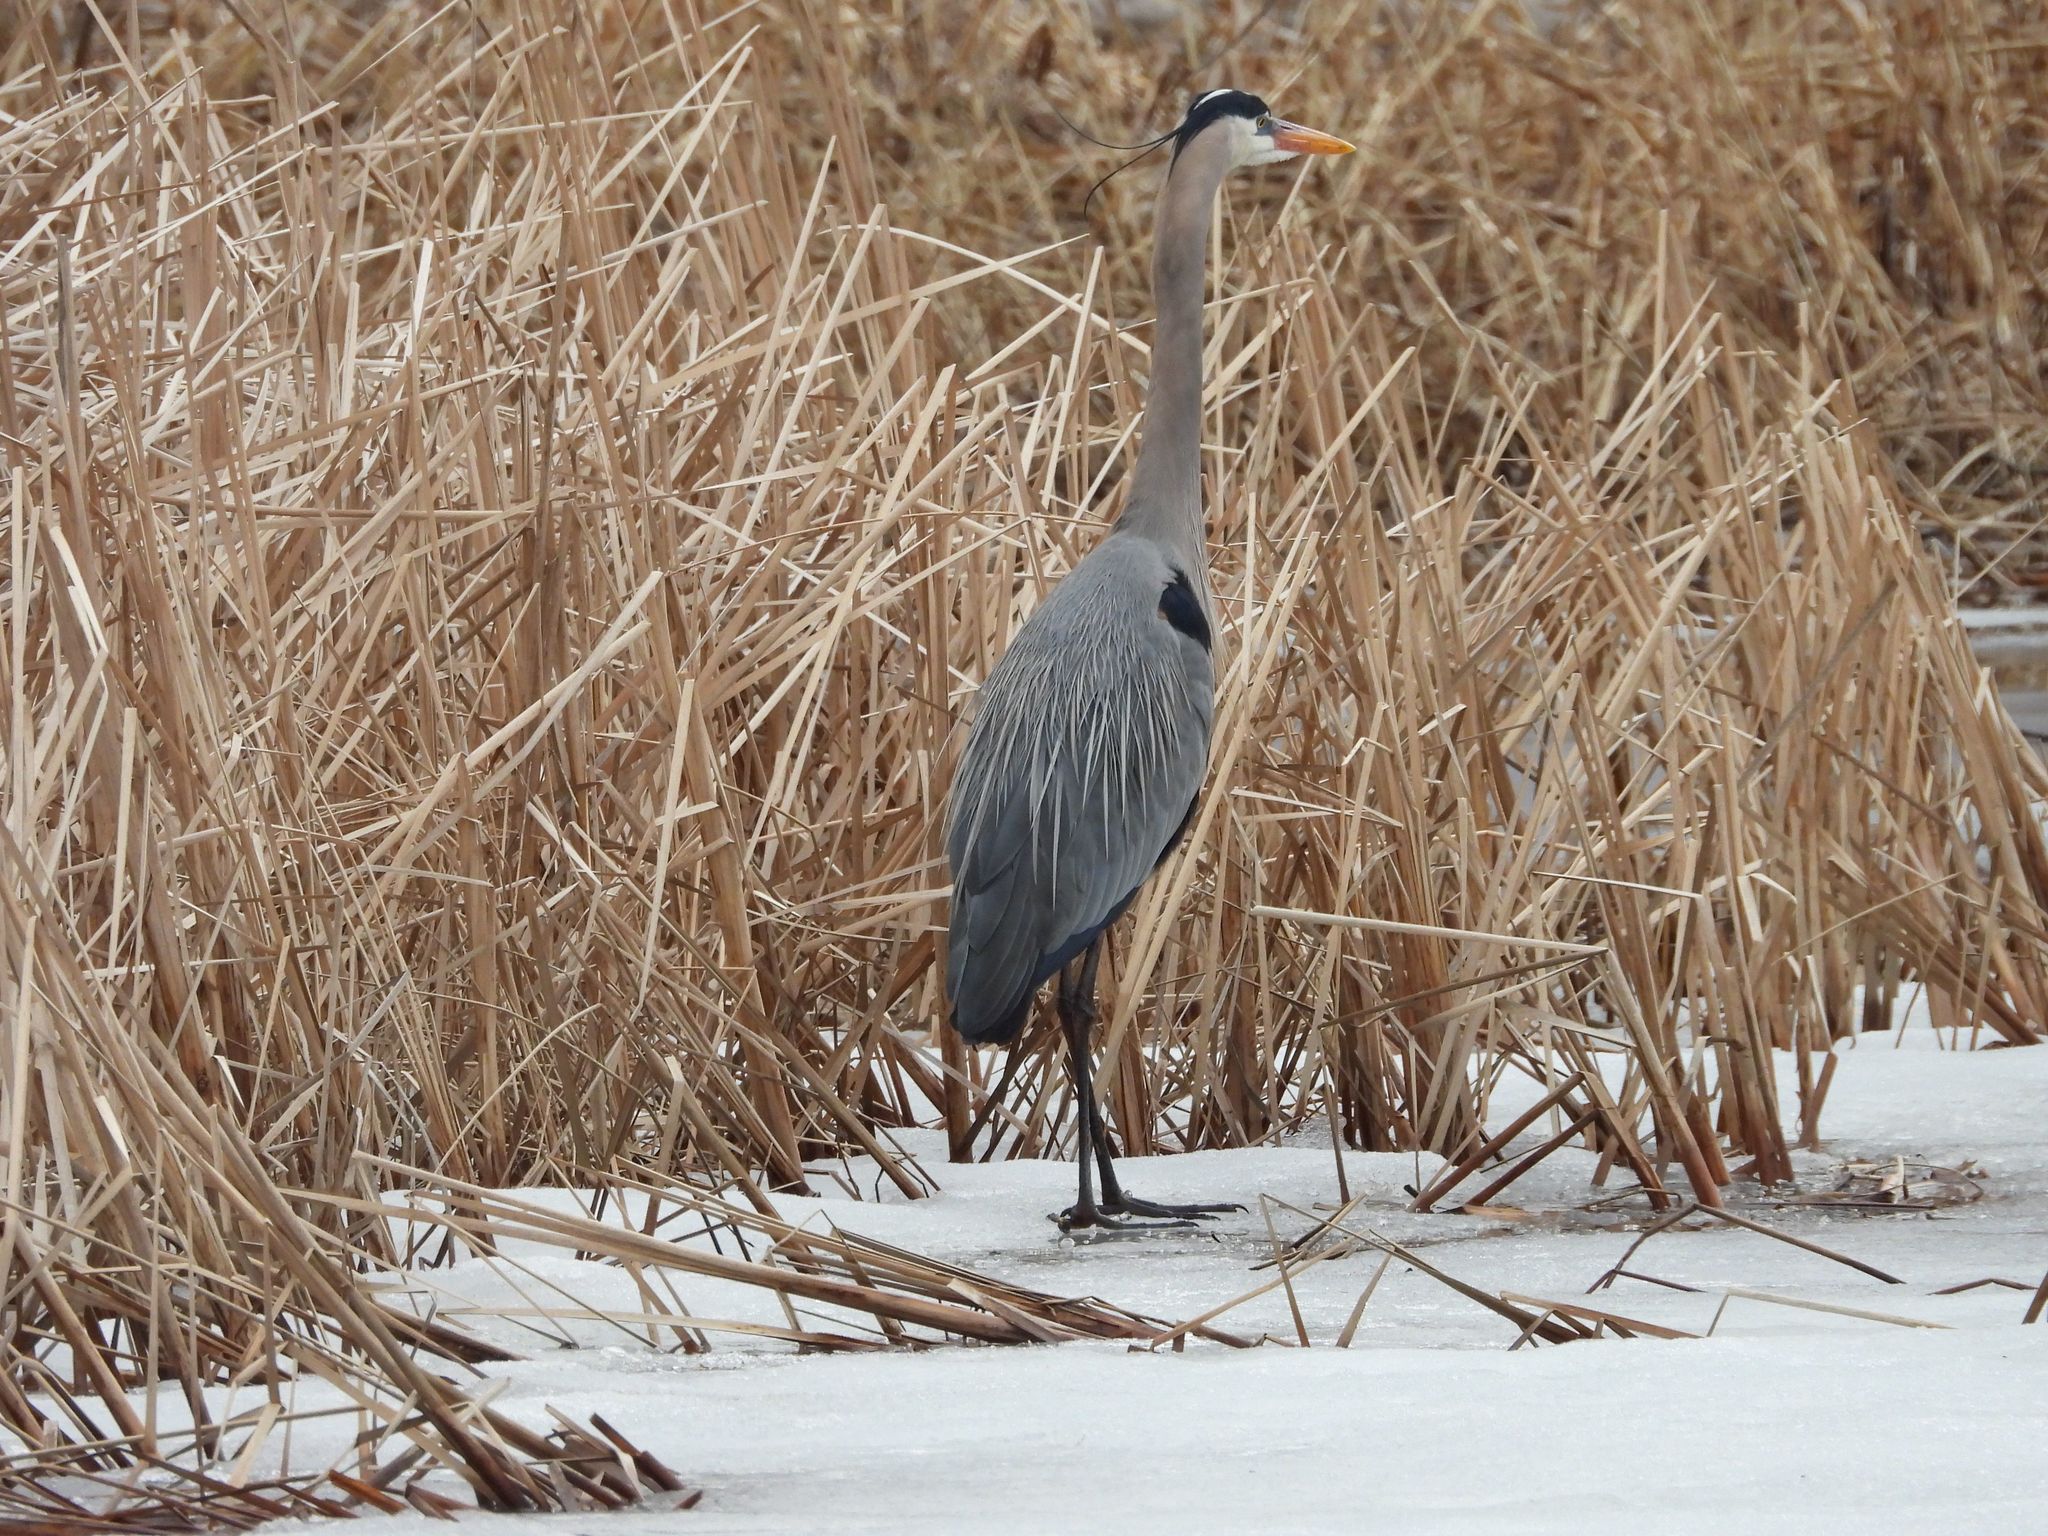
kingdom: Animalia
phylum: Chordata
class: Aves
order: Pelecaniformes
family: Ardeidae
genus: Ardea
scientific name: Ardea herodias
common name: Great blue heron
